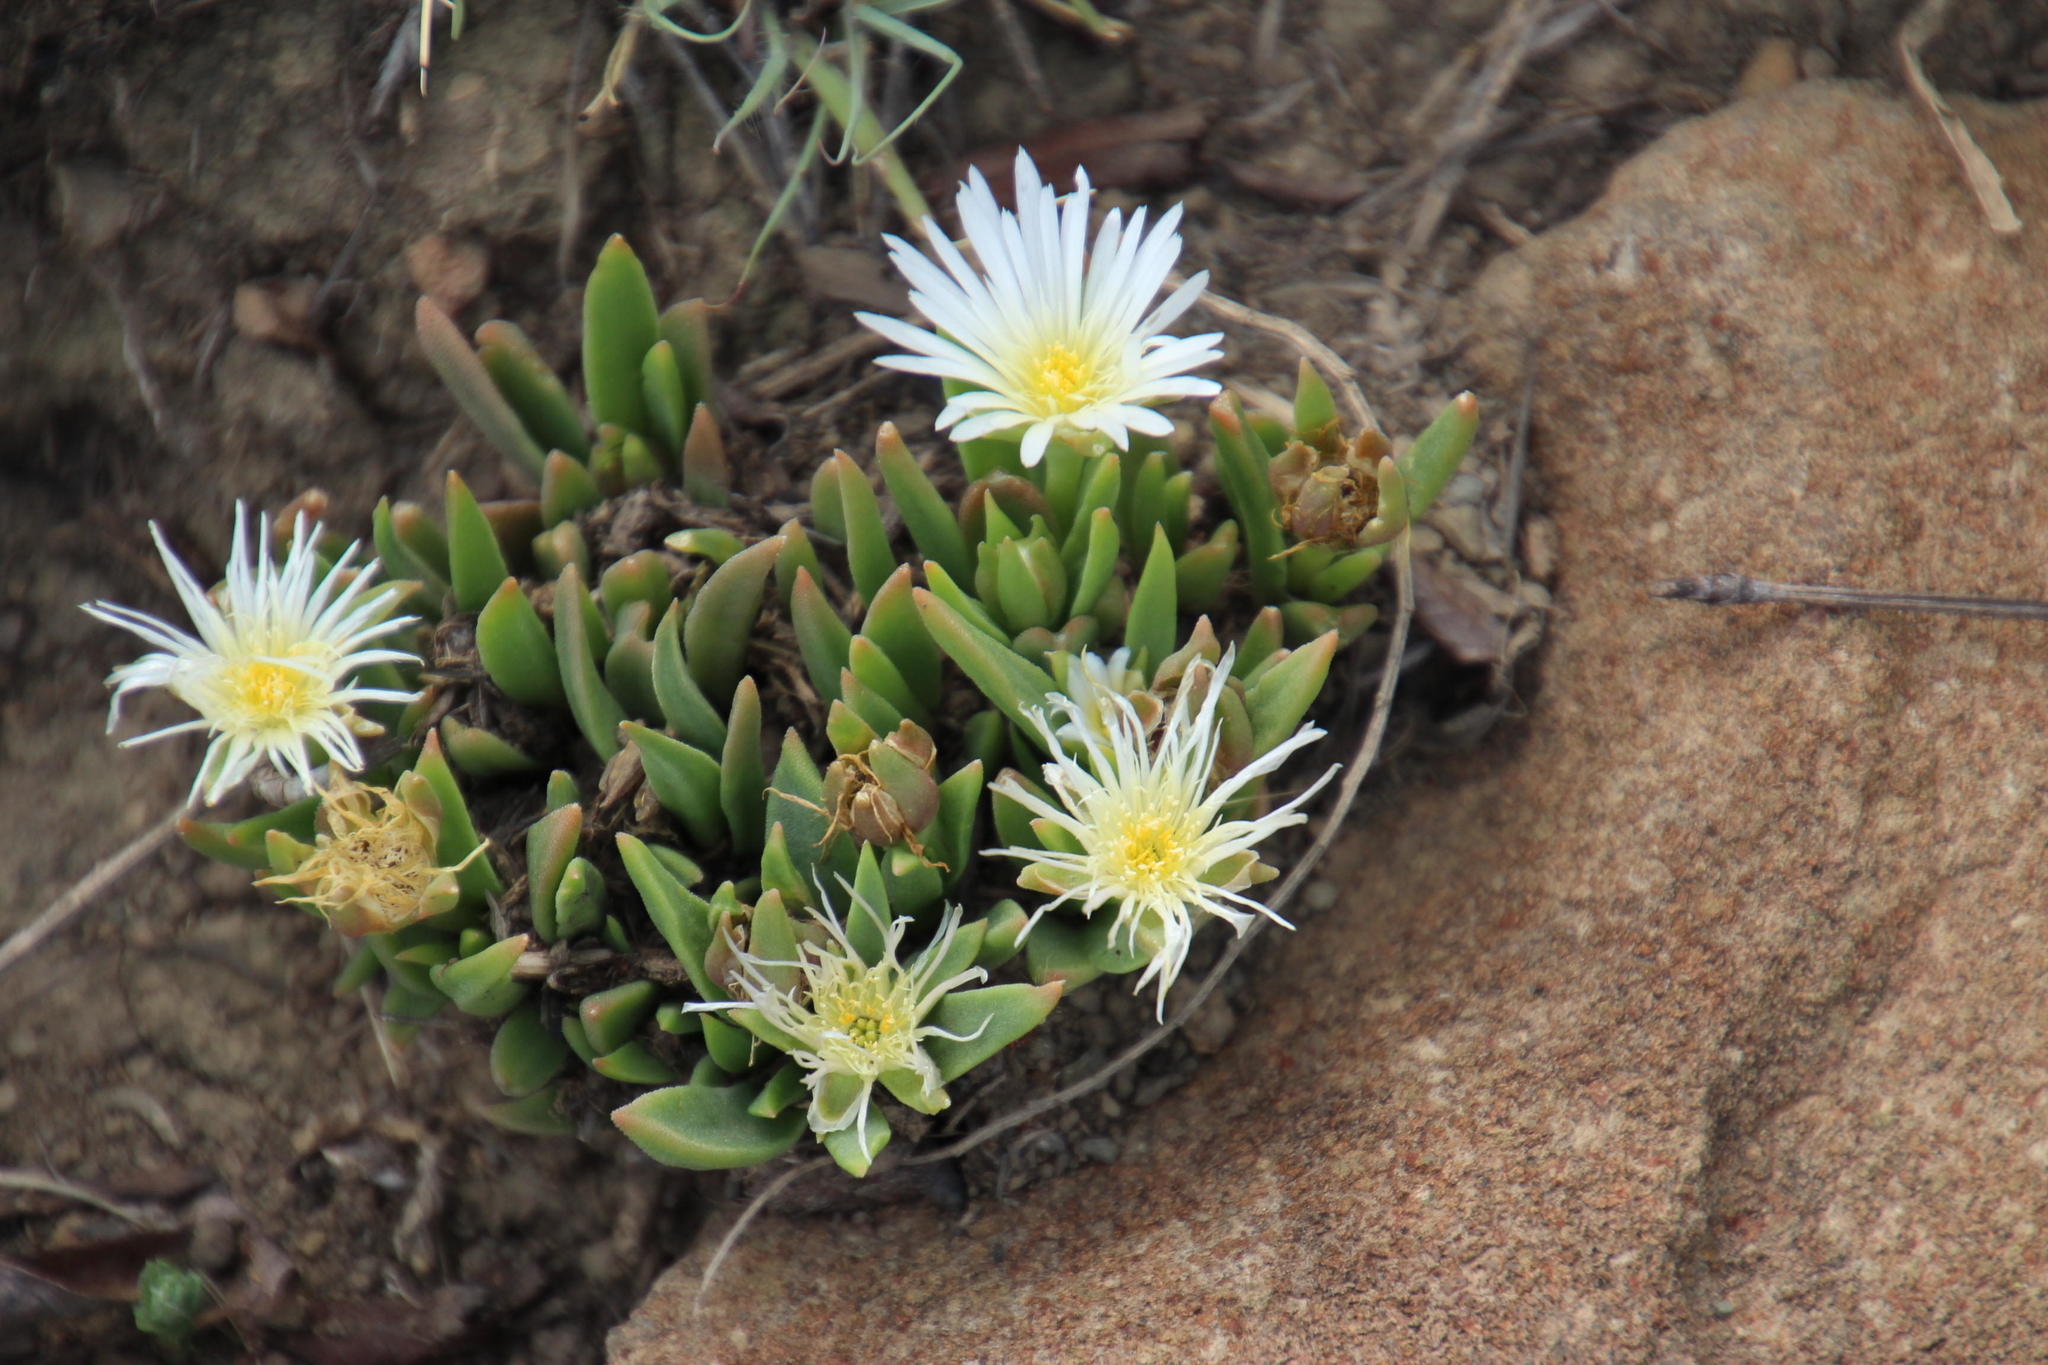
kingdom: Plantae
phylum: Tracheophyta
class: Magnoliopsida
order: Caryophyllales
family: Aizoaceae
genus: Delosperma
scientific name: Delosperma carolinense
